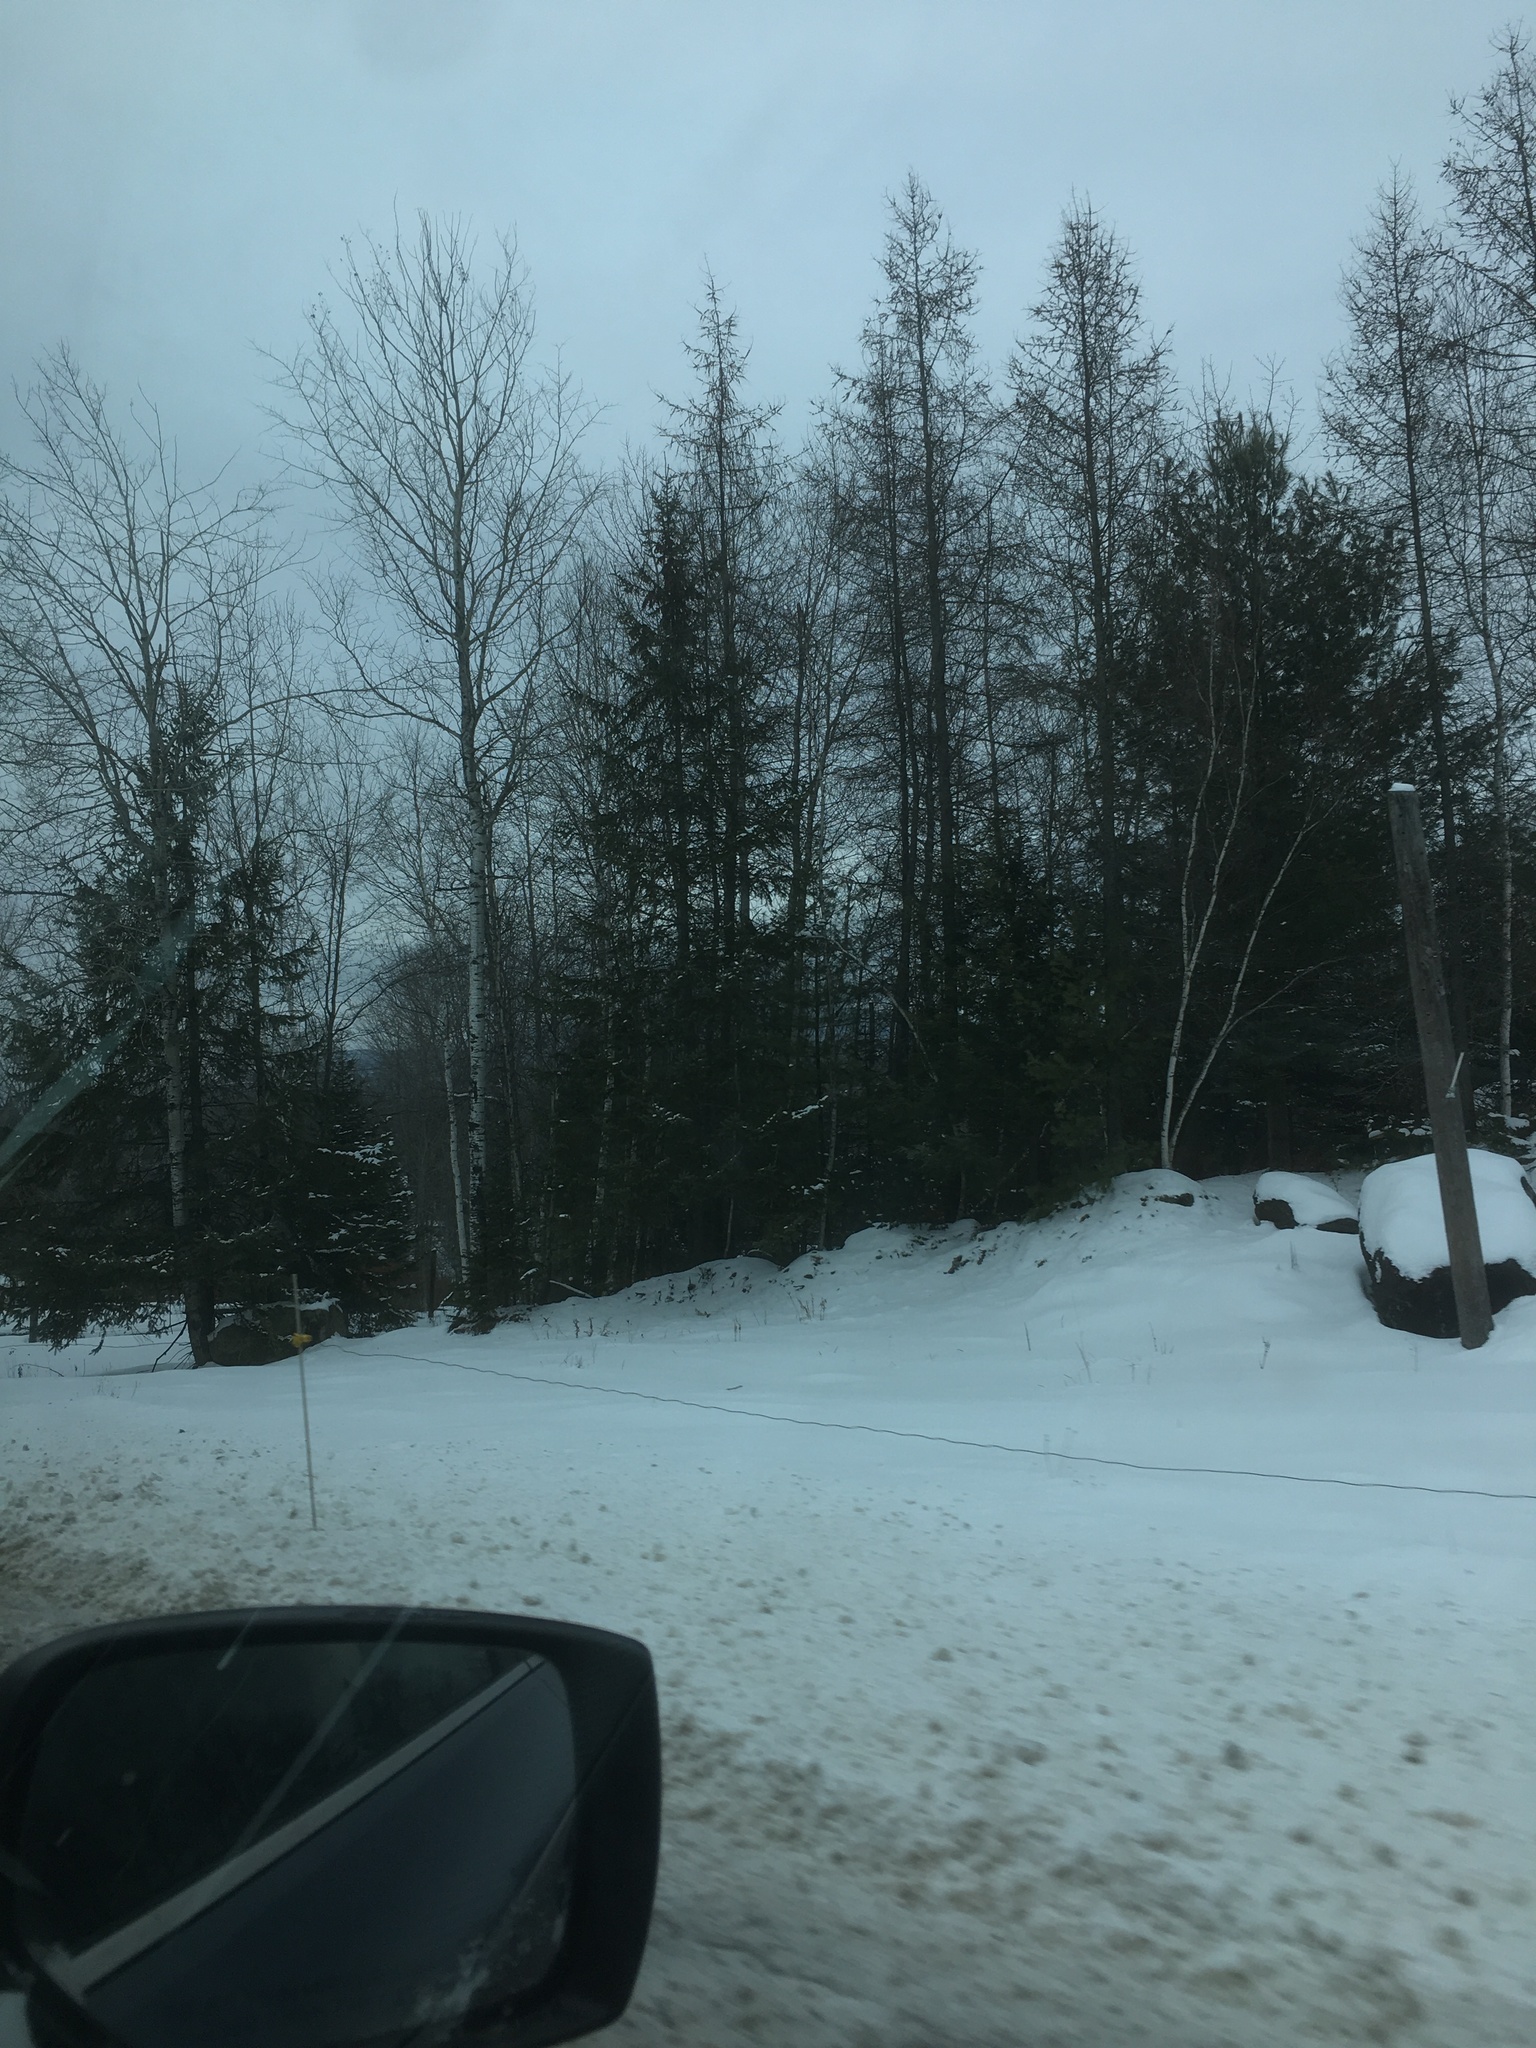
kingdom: Plantae
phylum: Tracheophyta
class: Pinopsida
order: Pinales
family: Pinaceae
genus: Larix
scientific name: Larix laricina
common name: American larch
